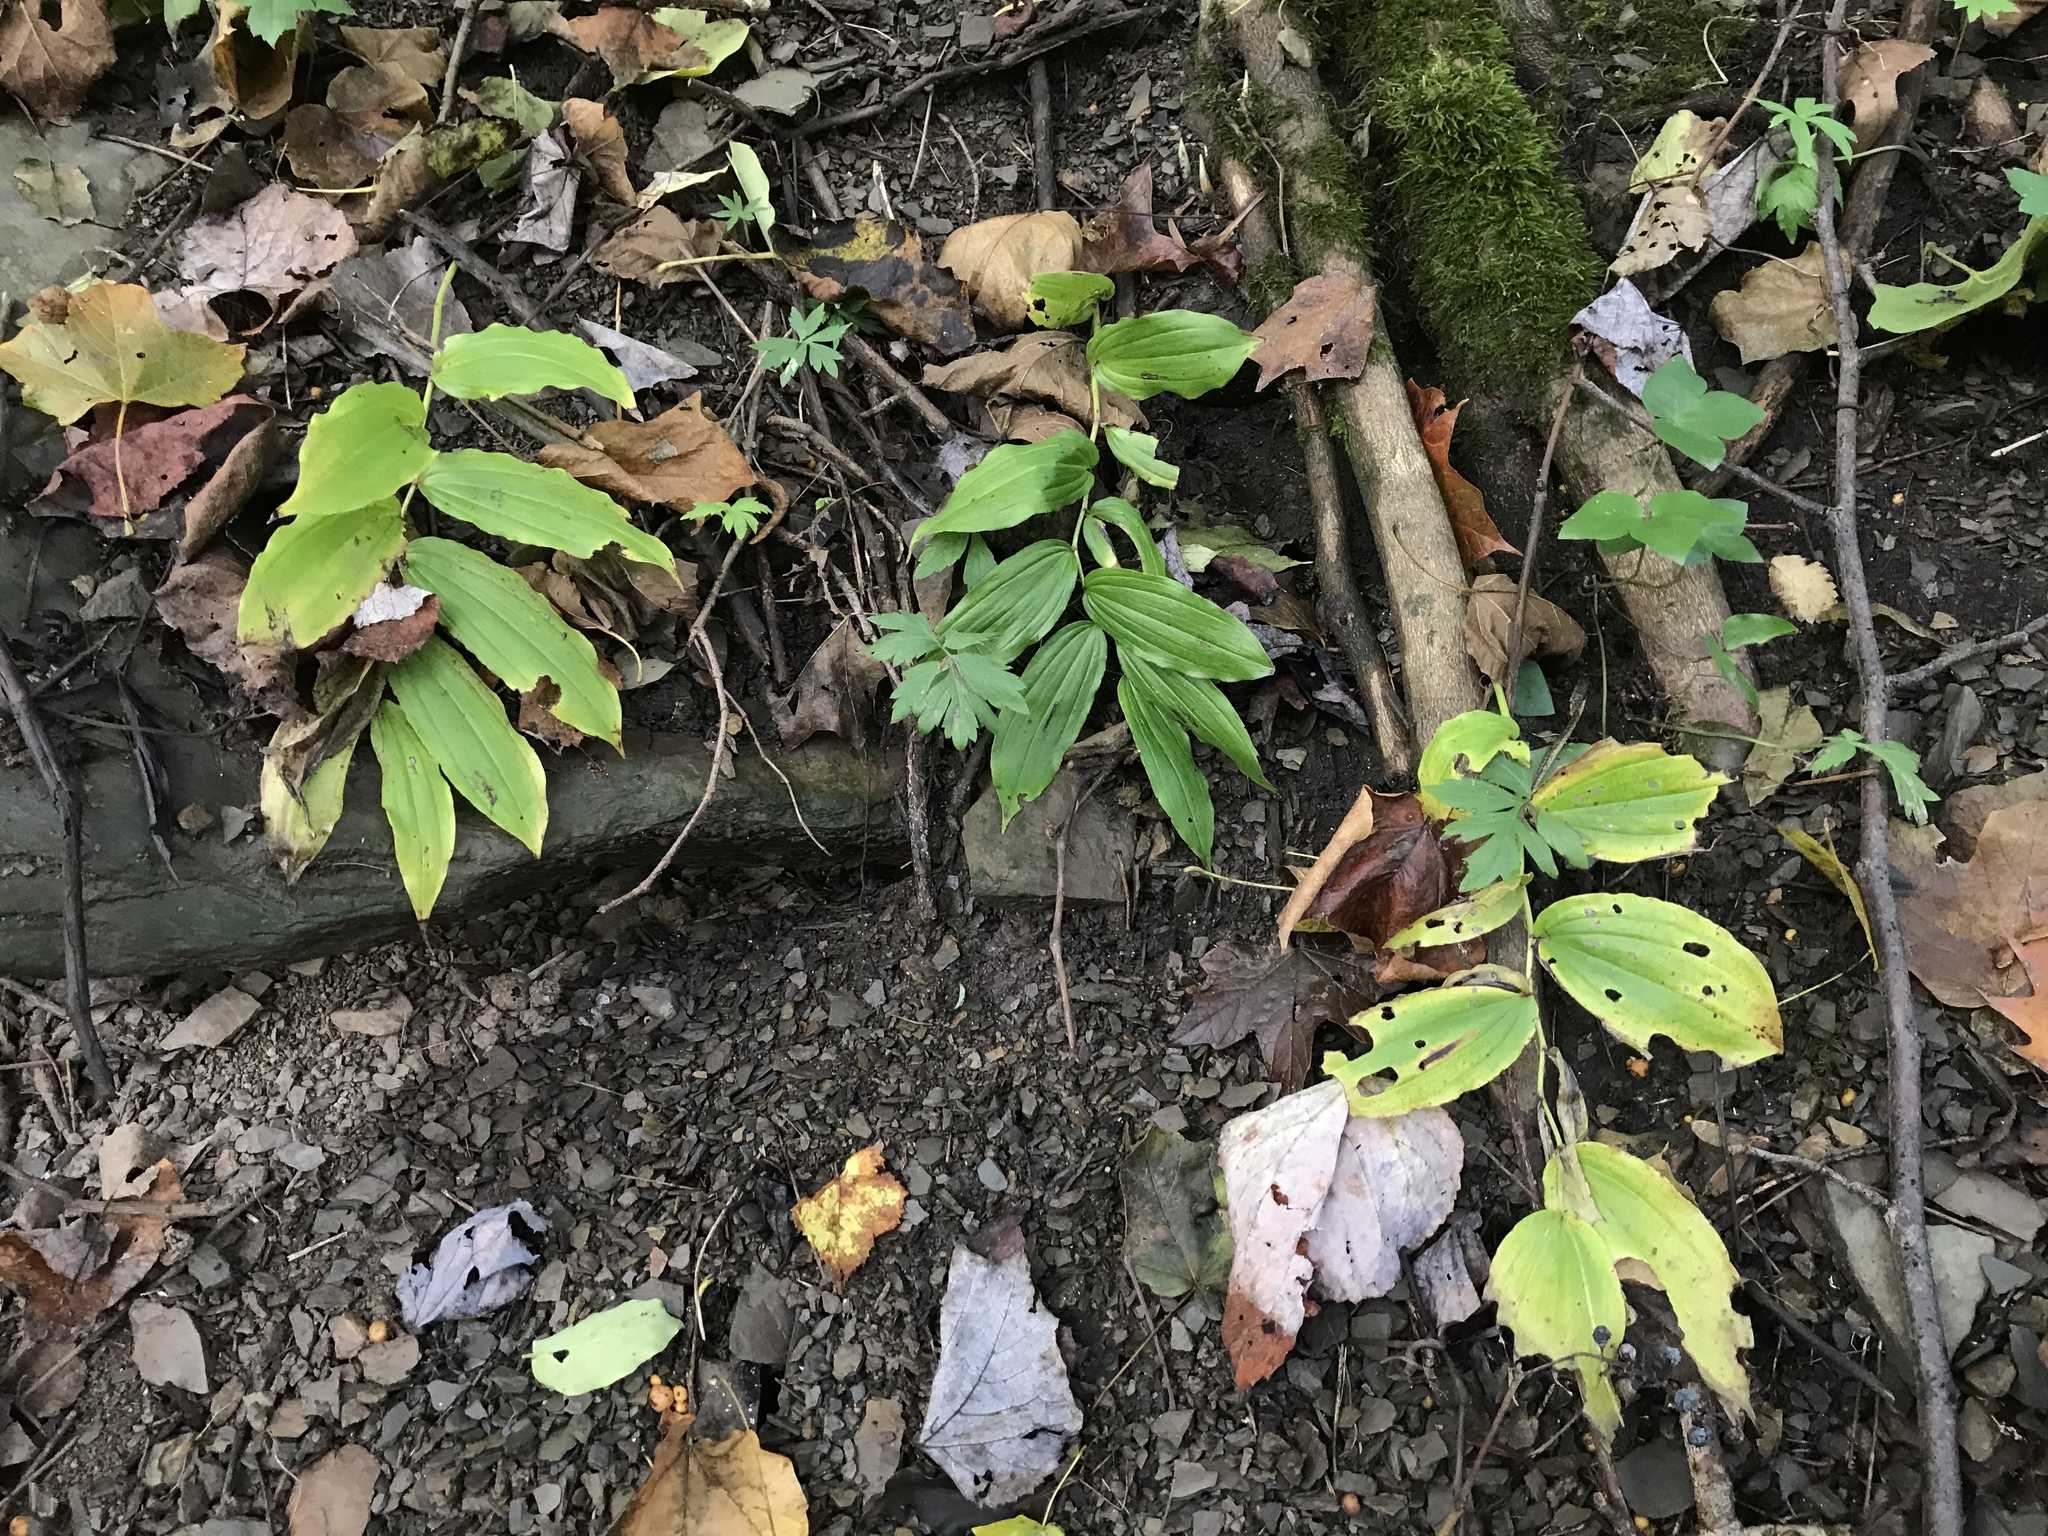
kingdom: Plantae
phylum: Tracheophyta
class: Liliopsida
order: Asparagales
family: Asparagaceae
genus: Maianthemum
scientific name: Maianthemum racemosum
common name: False spikenard
